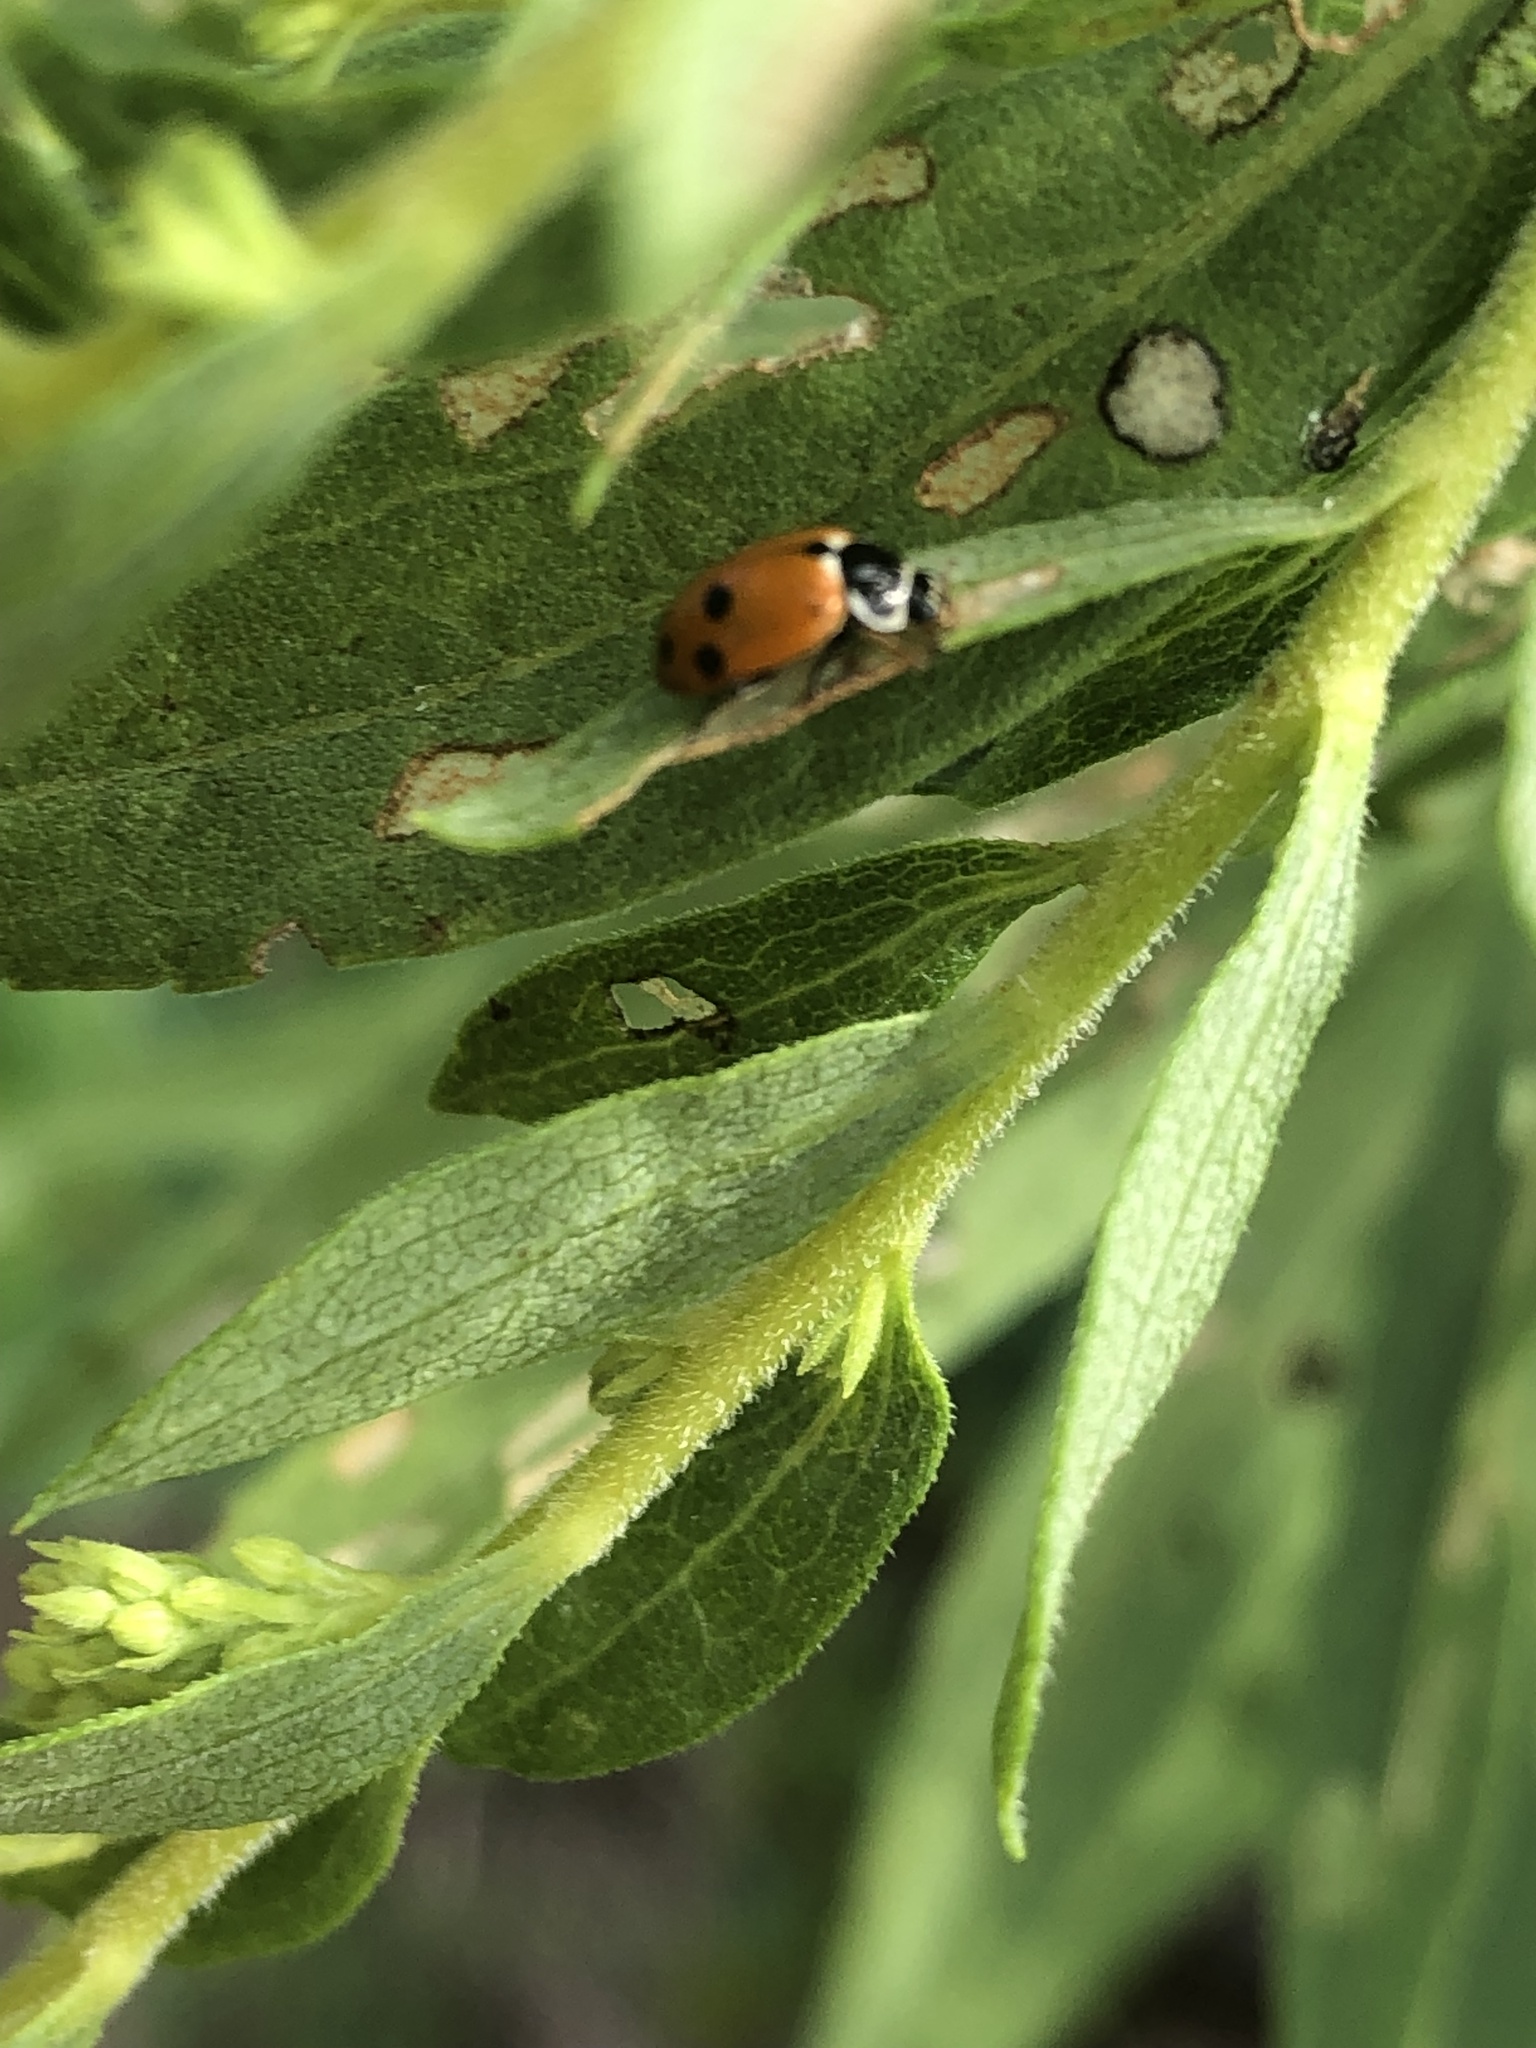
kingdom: Animalia
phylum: Arthropoda
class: Insecta
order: Coleoptera
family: Coccinellidae
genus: Hippodamia
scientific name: Hippodamia variegata
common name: Ladybird beetle
